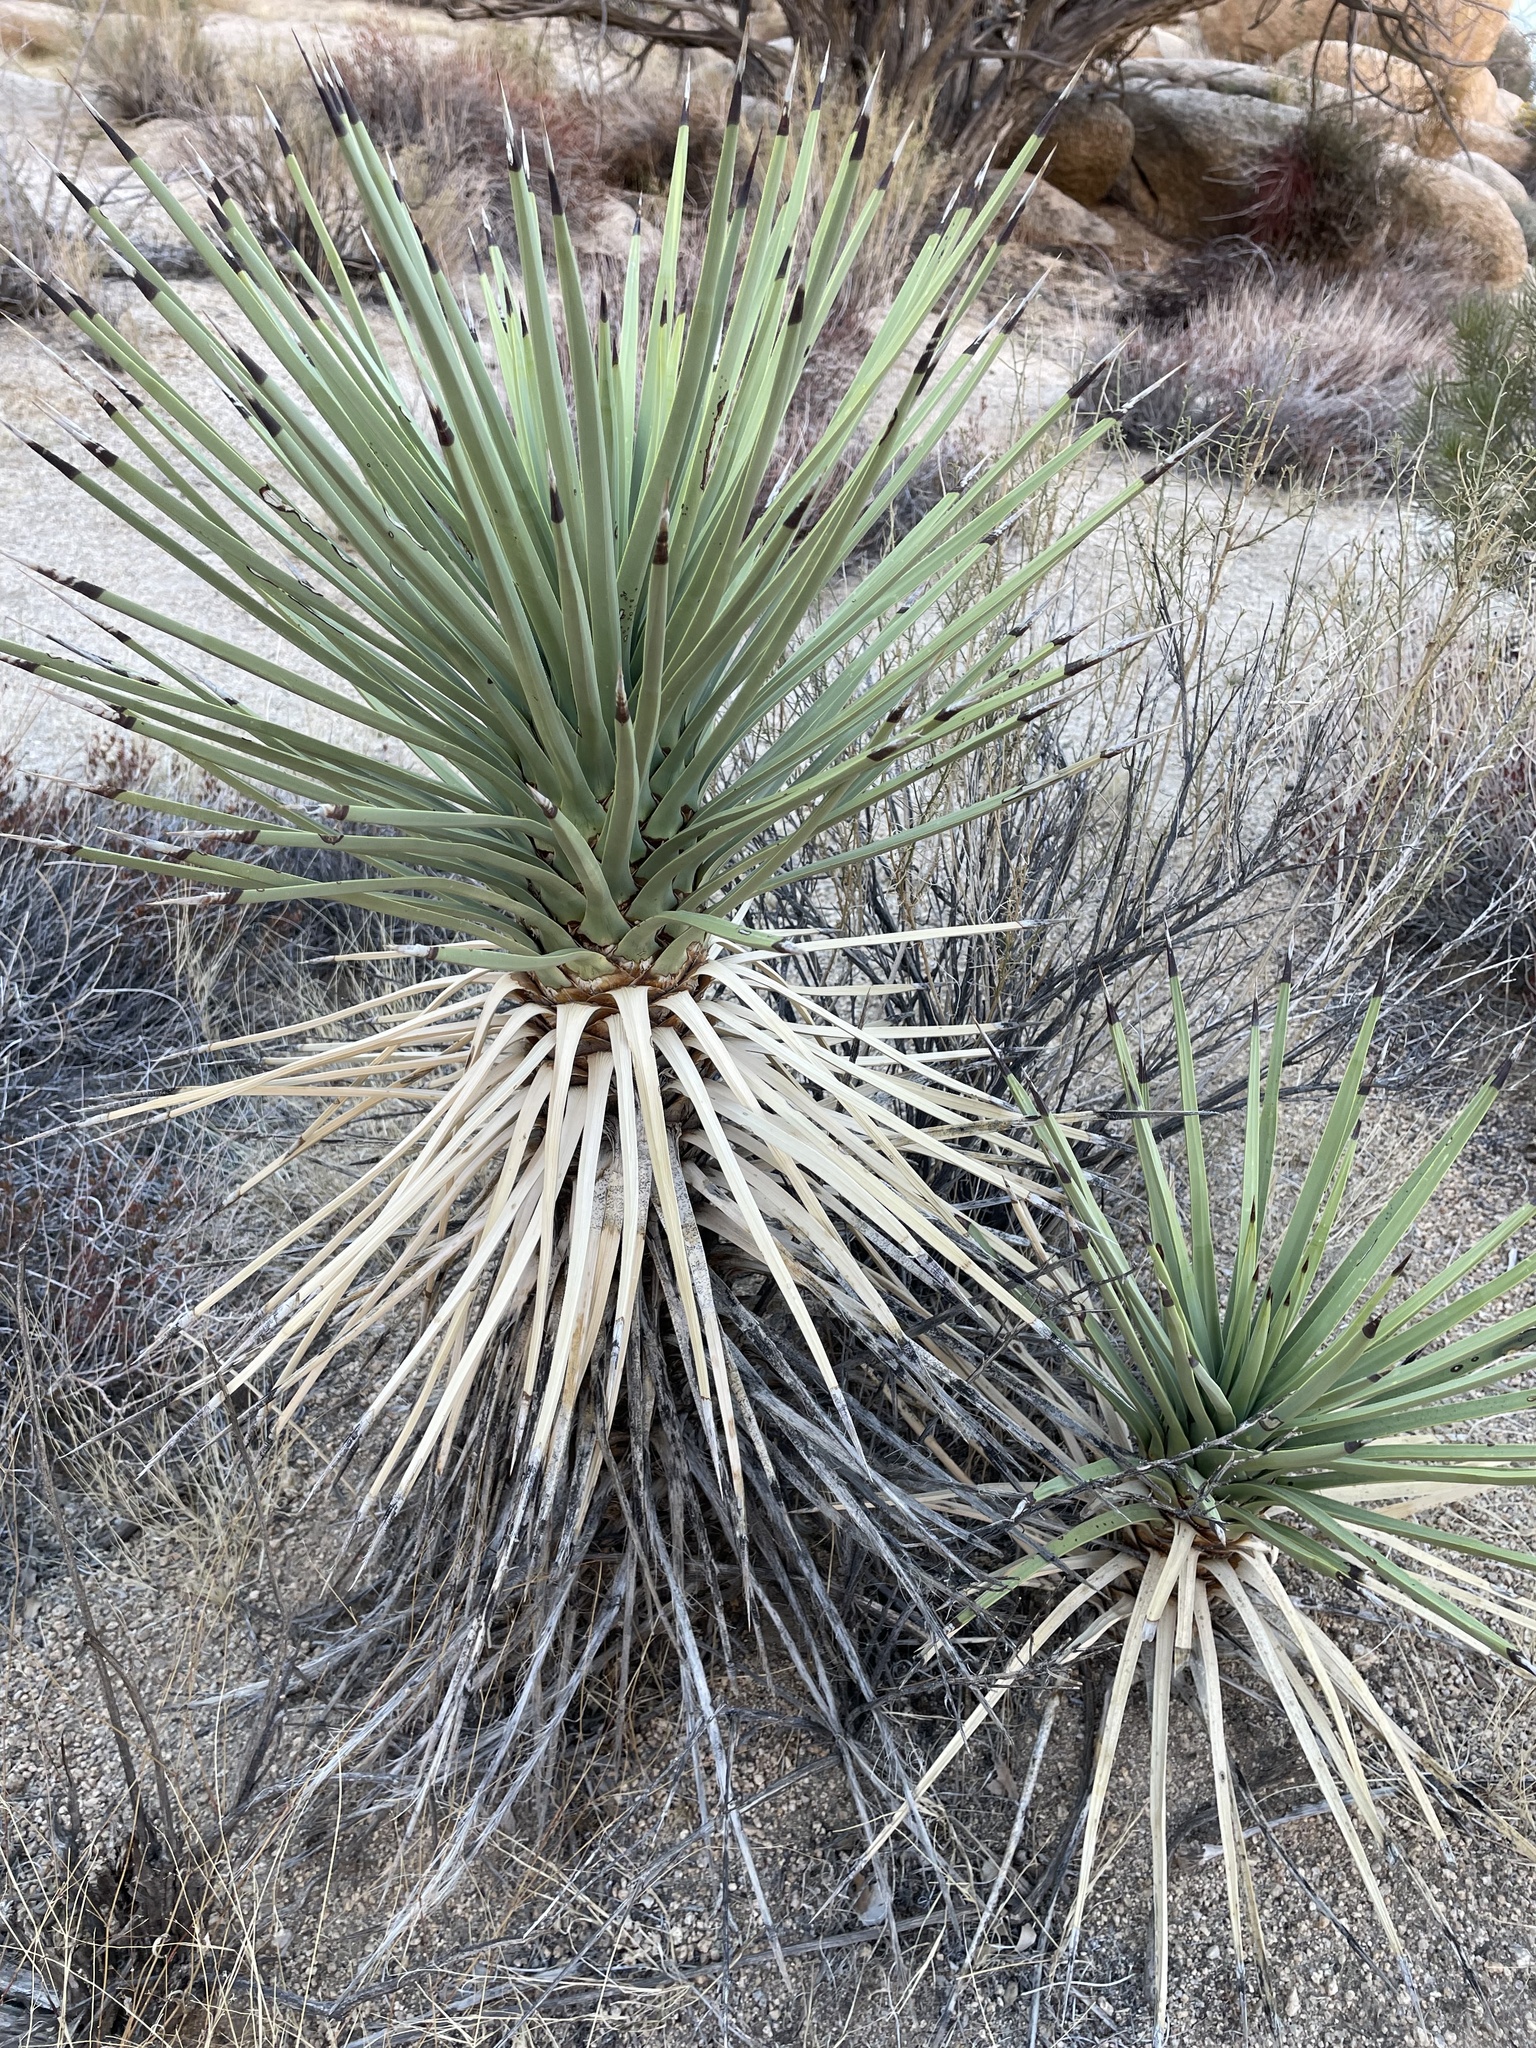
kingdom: Plantae
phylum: Tracheophyta
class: Liliopsida
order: Asparagales
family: Asparagaceae
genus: Yucca
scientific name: Yucca brevifolia
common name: Joshua tree
